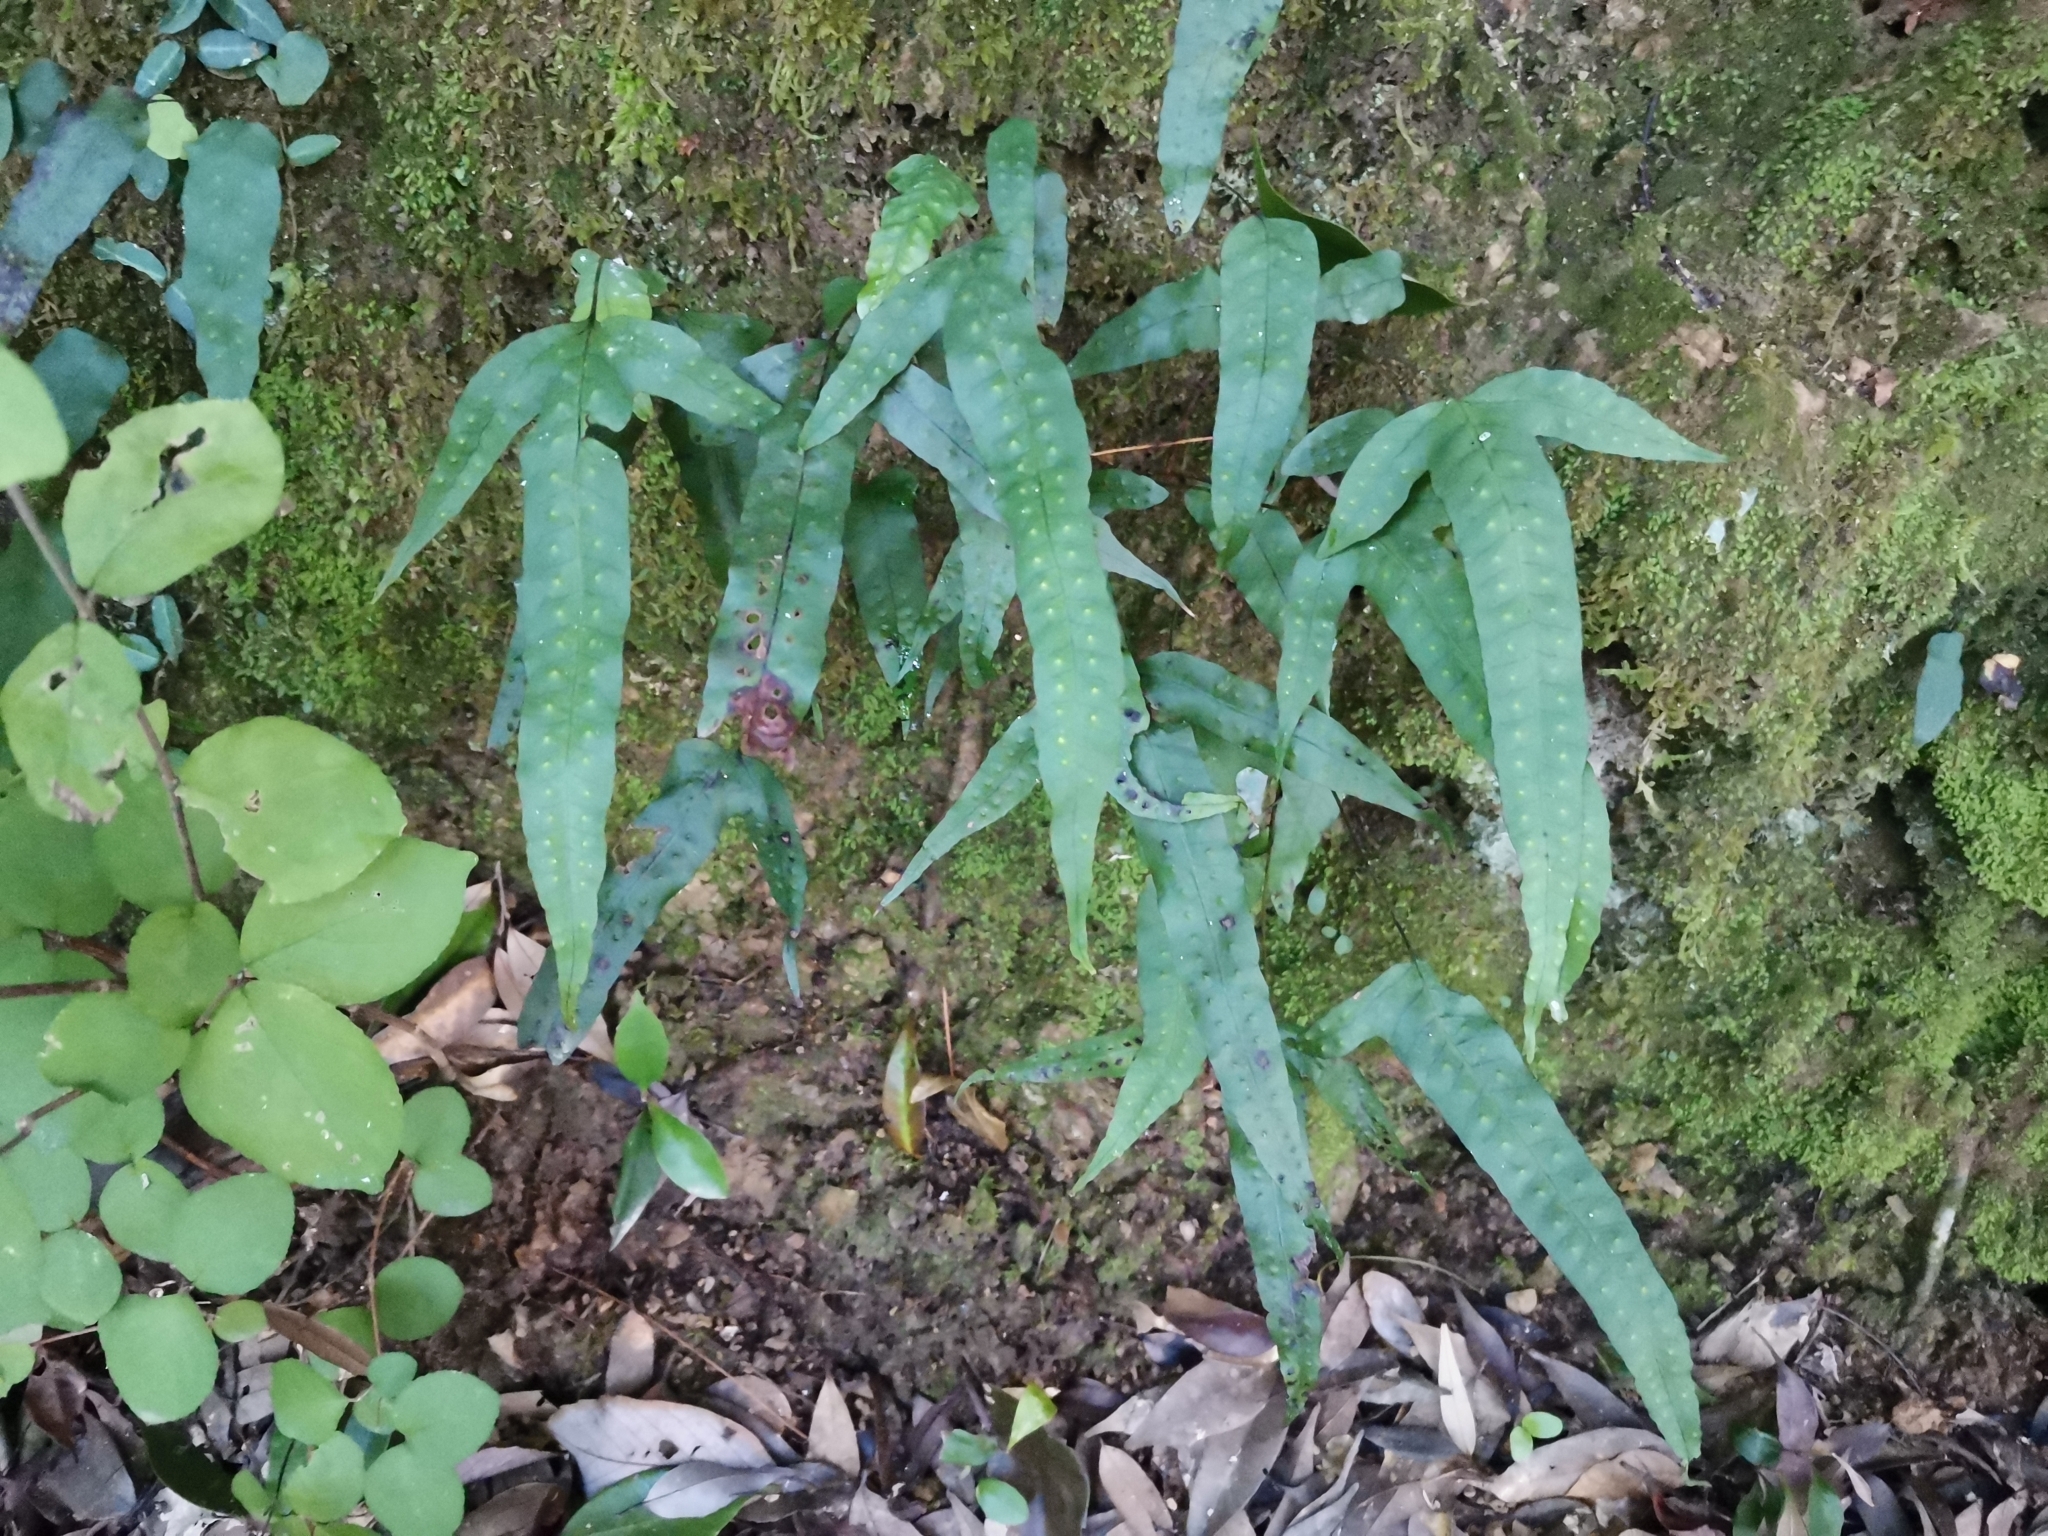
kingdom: Plantae
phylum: Tracheophyta
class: Polypodiopsida
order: Polypodiales
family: Polypodiaceae
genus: Selliguea
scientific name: Selliguea hastata
